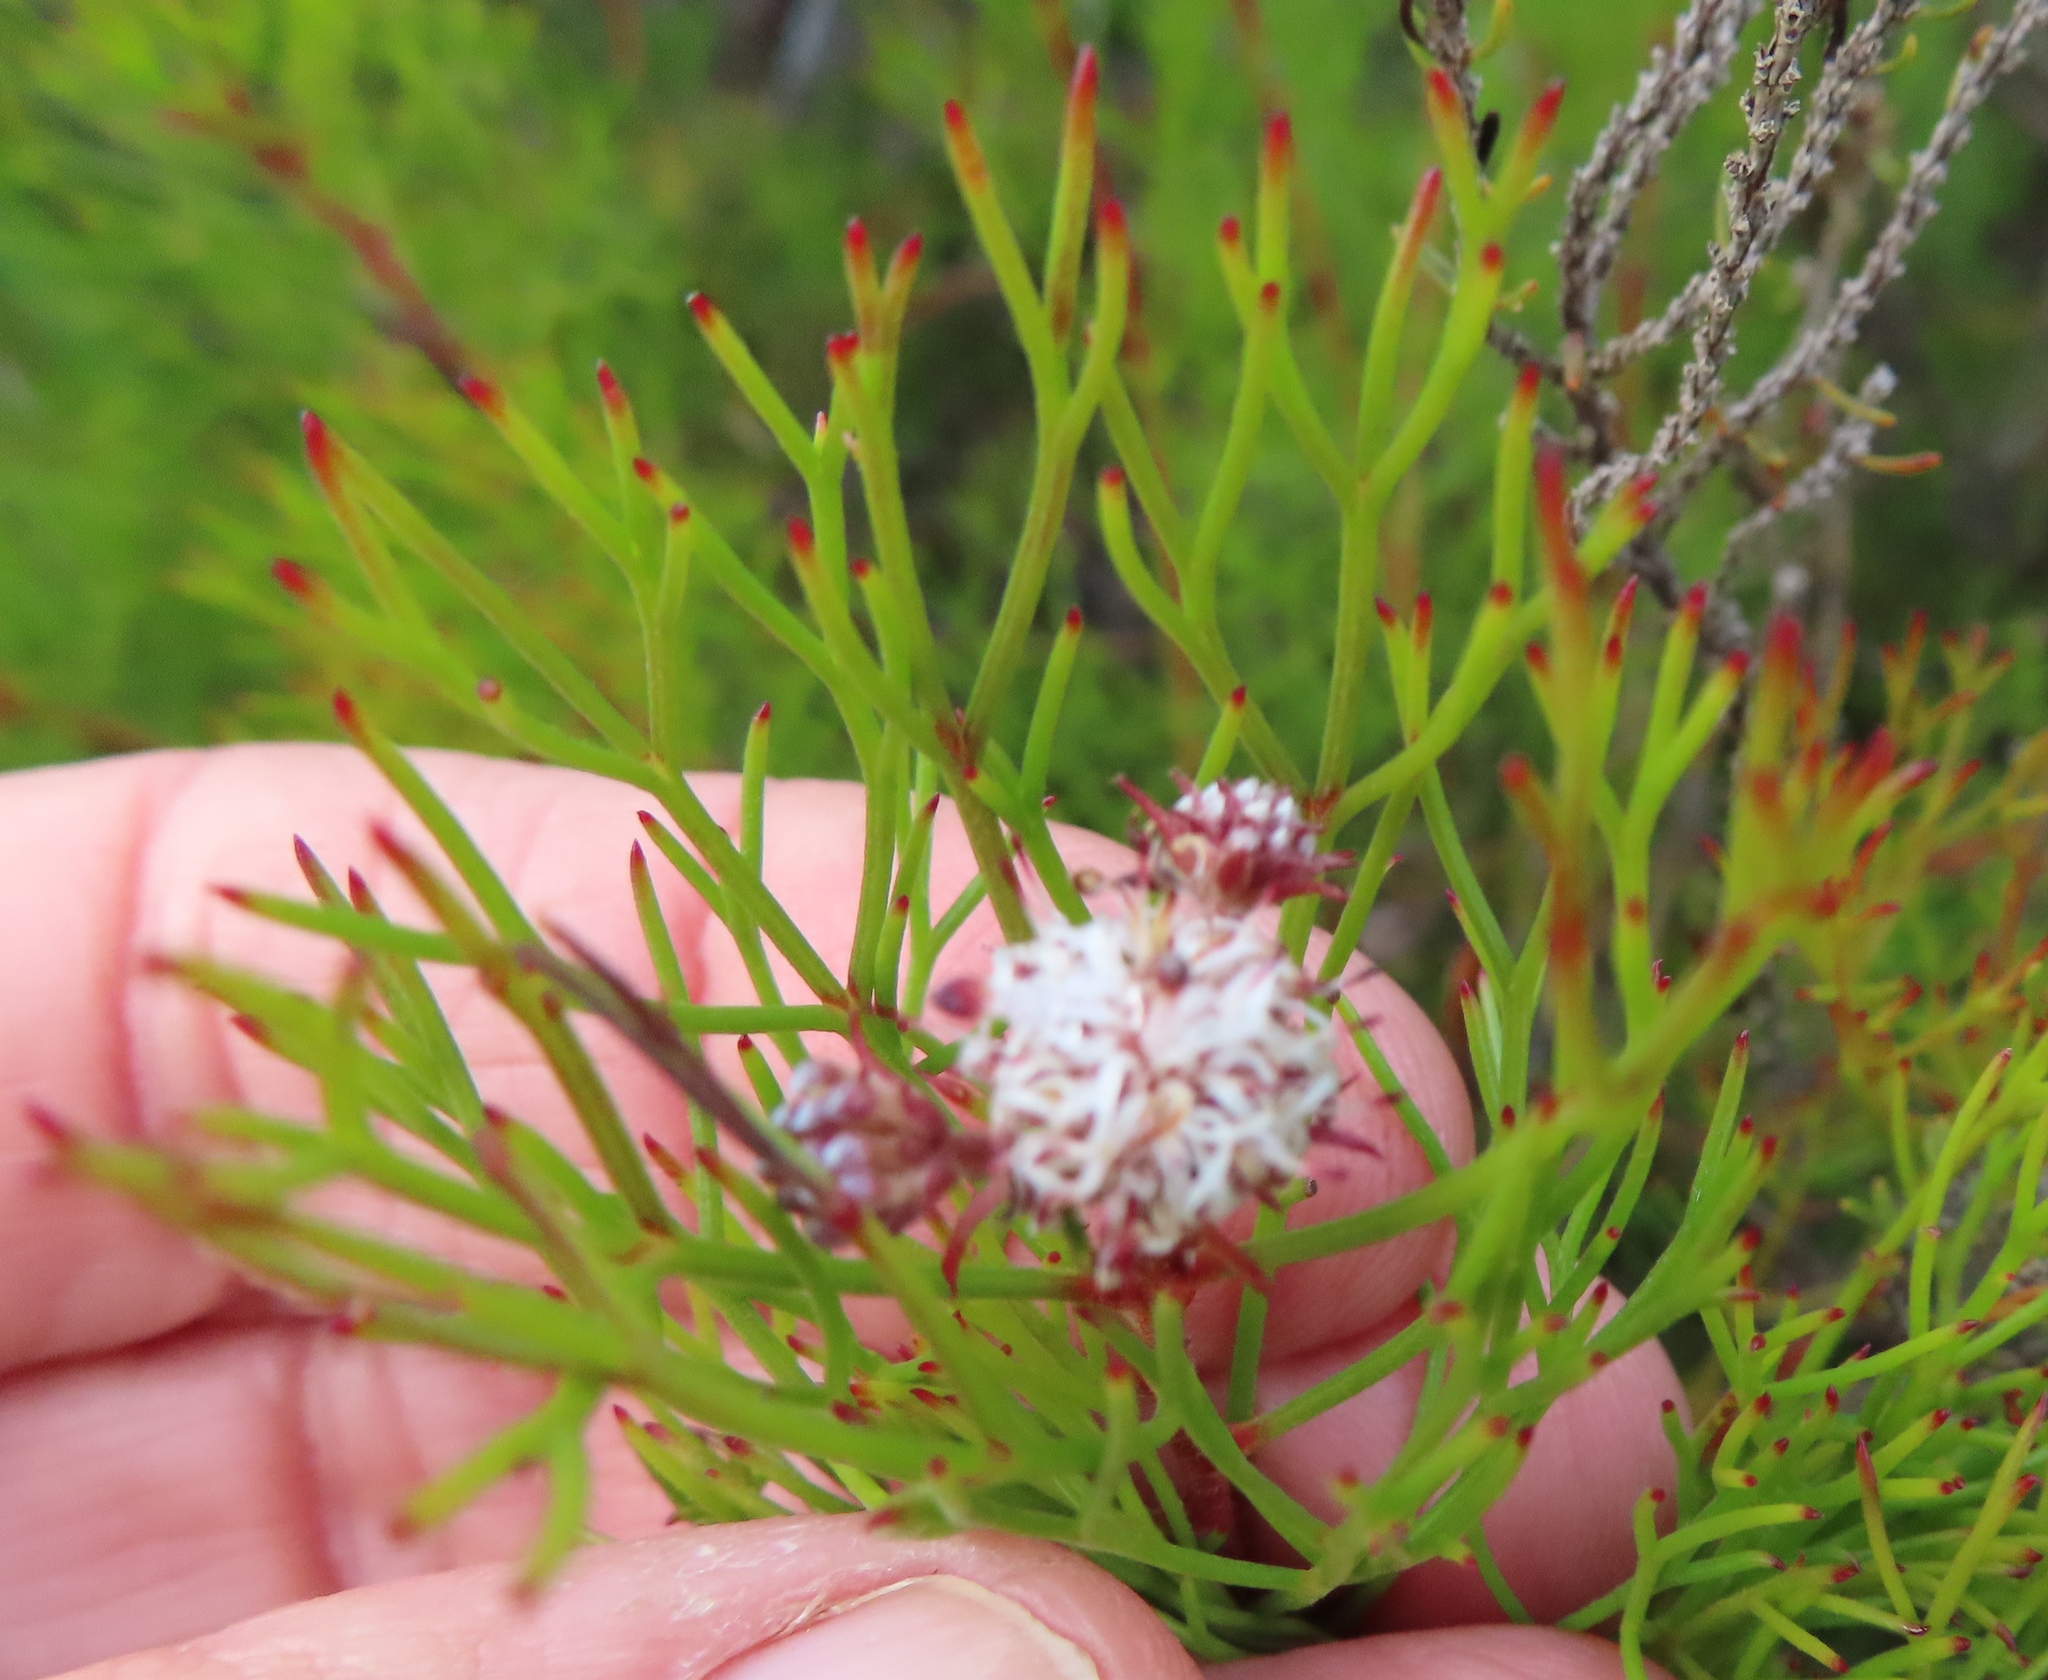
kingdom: Plantae
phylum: Tracheophyta
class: Magnoliopsida
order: Proteales
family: Proteaceae
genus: Serruria
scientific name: Serruria fasciflora
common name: Common pin spiderhead
